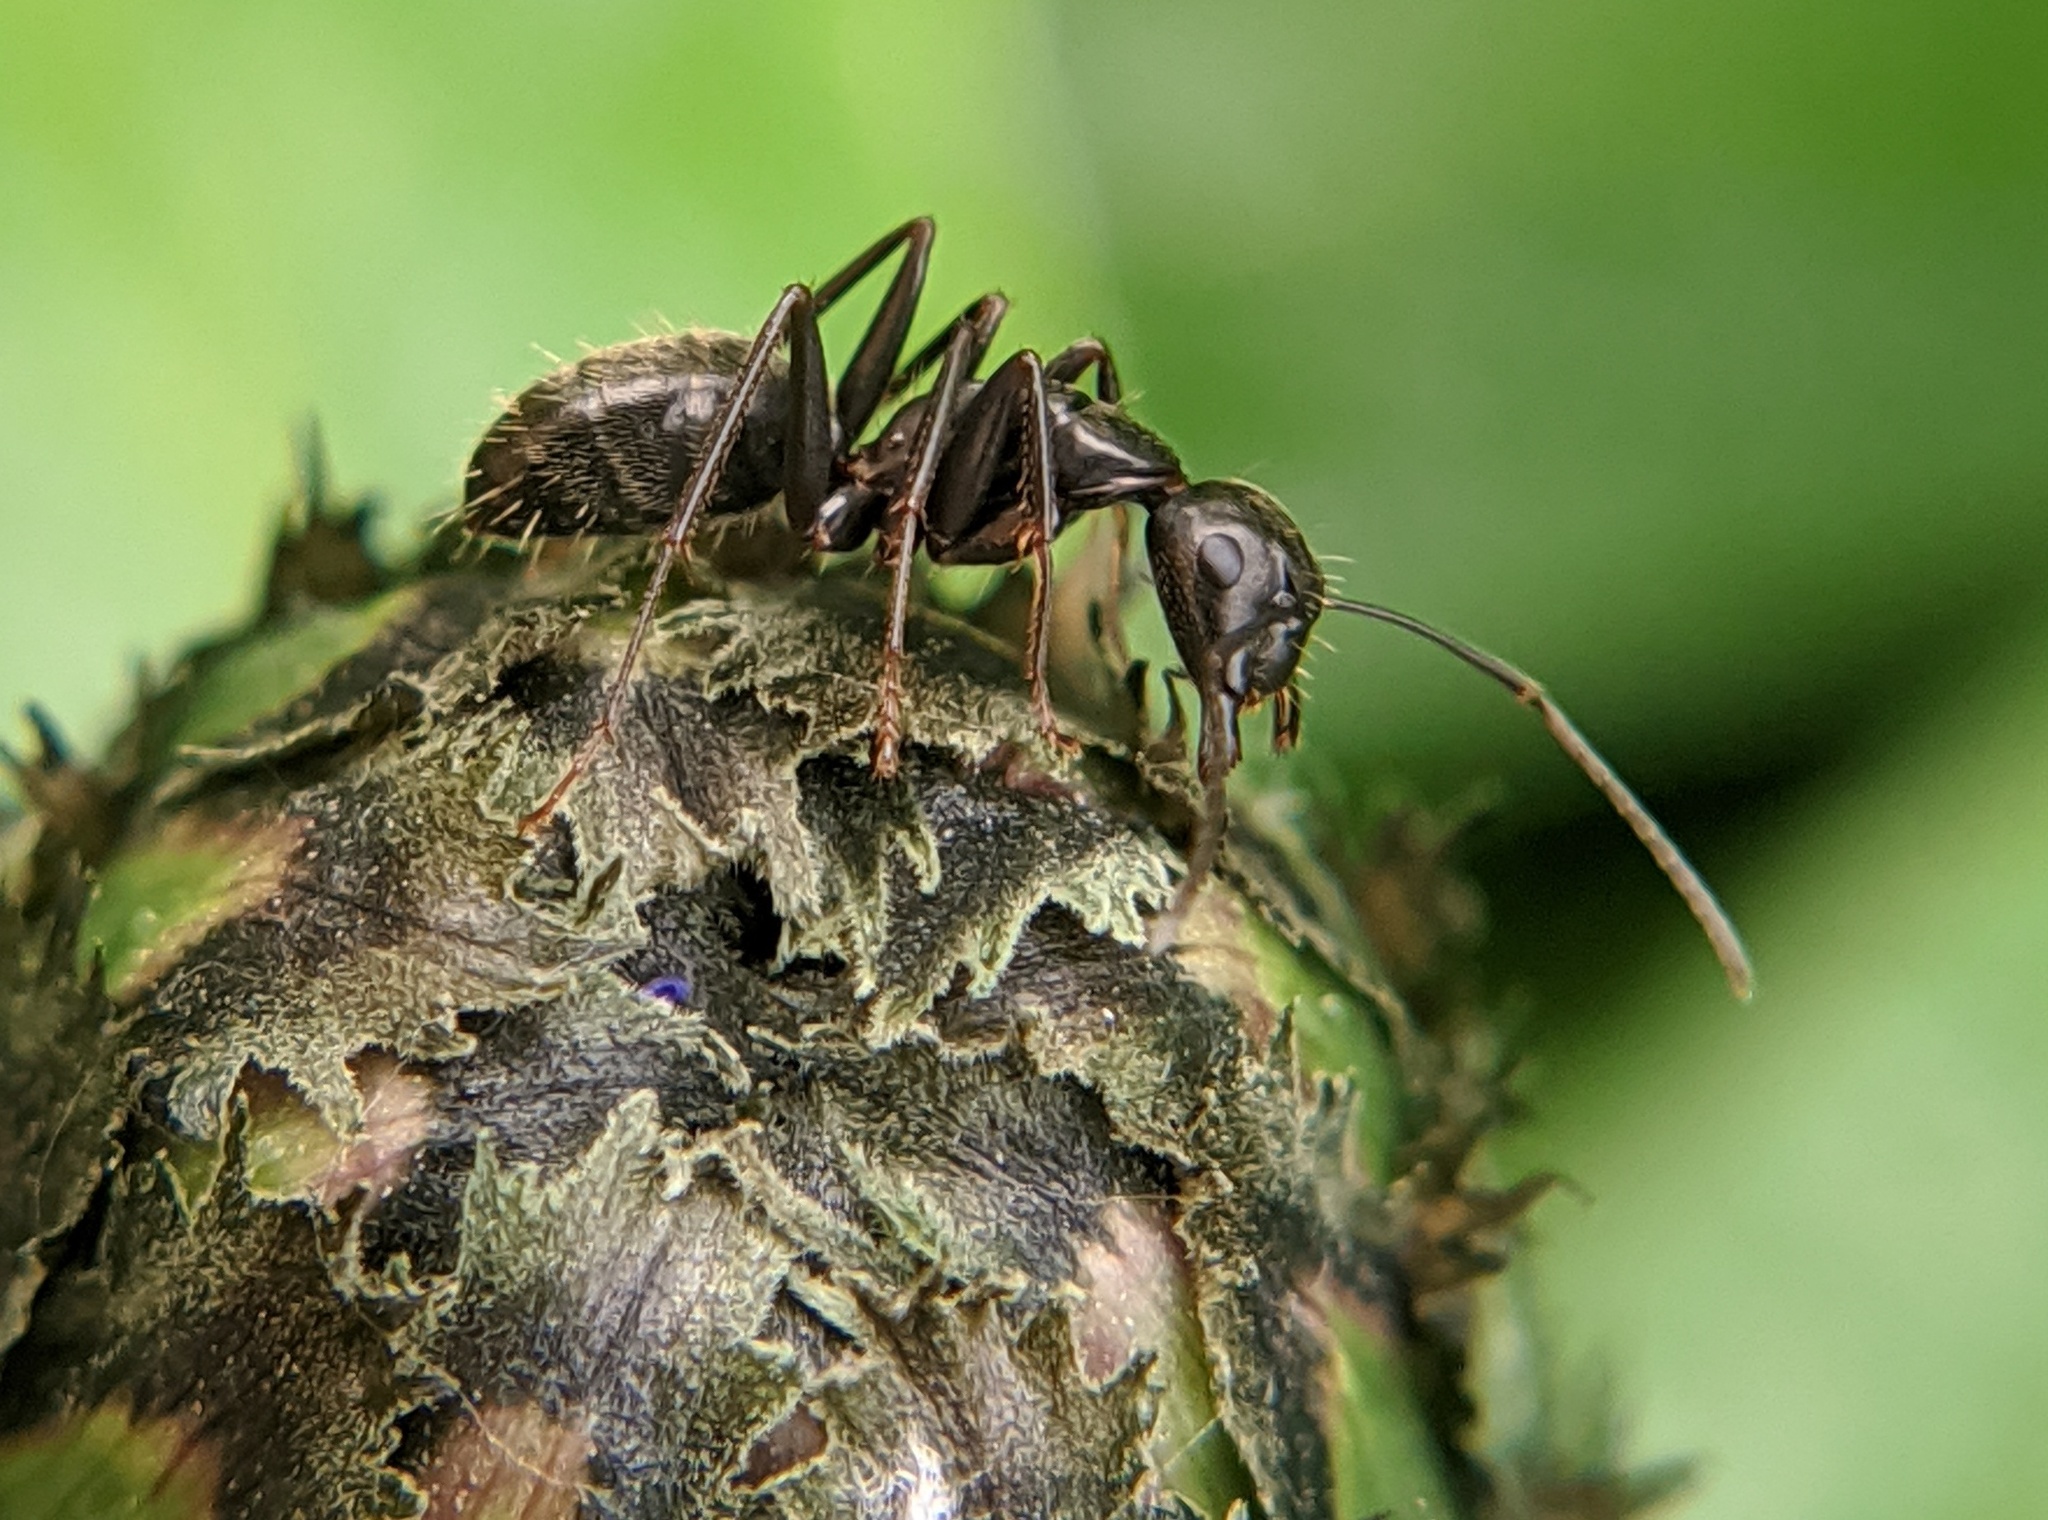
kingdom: Animalia
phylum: Arthropoda
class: Insecta
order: Hymenoptera
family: Formicidae
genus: Camponotus
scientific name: Camponotus pennsylvanicus
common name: Black carpenter ant
